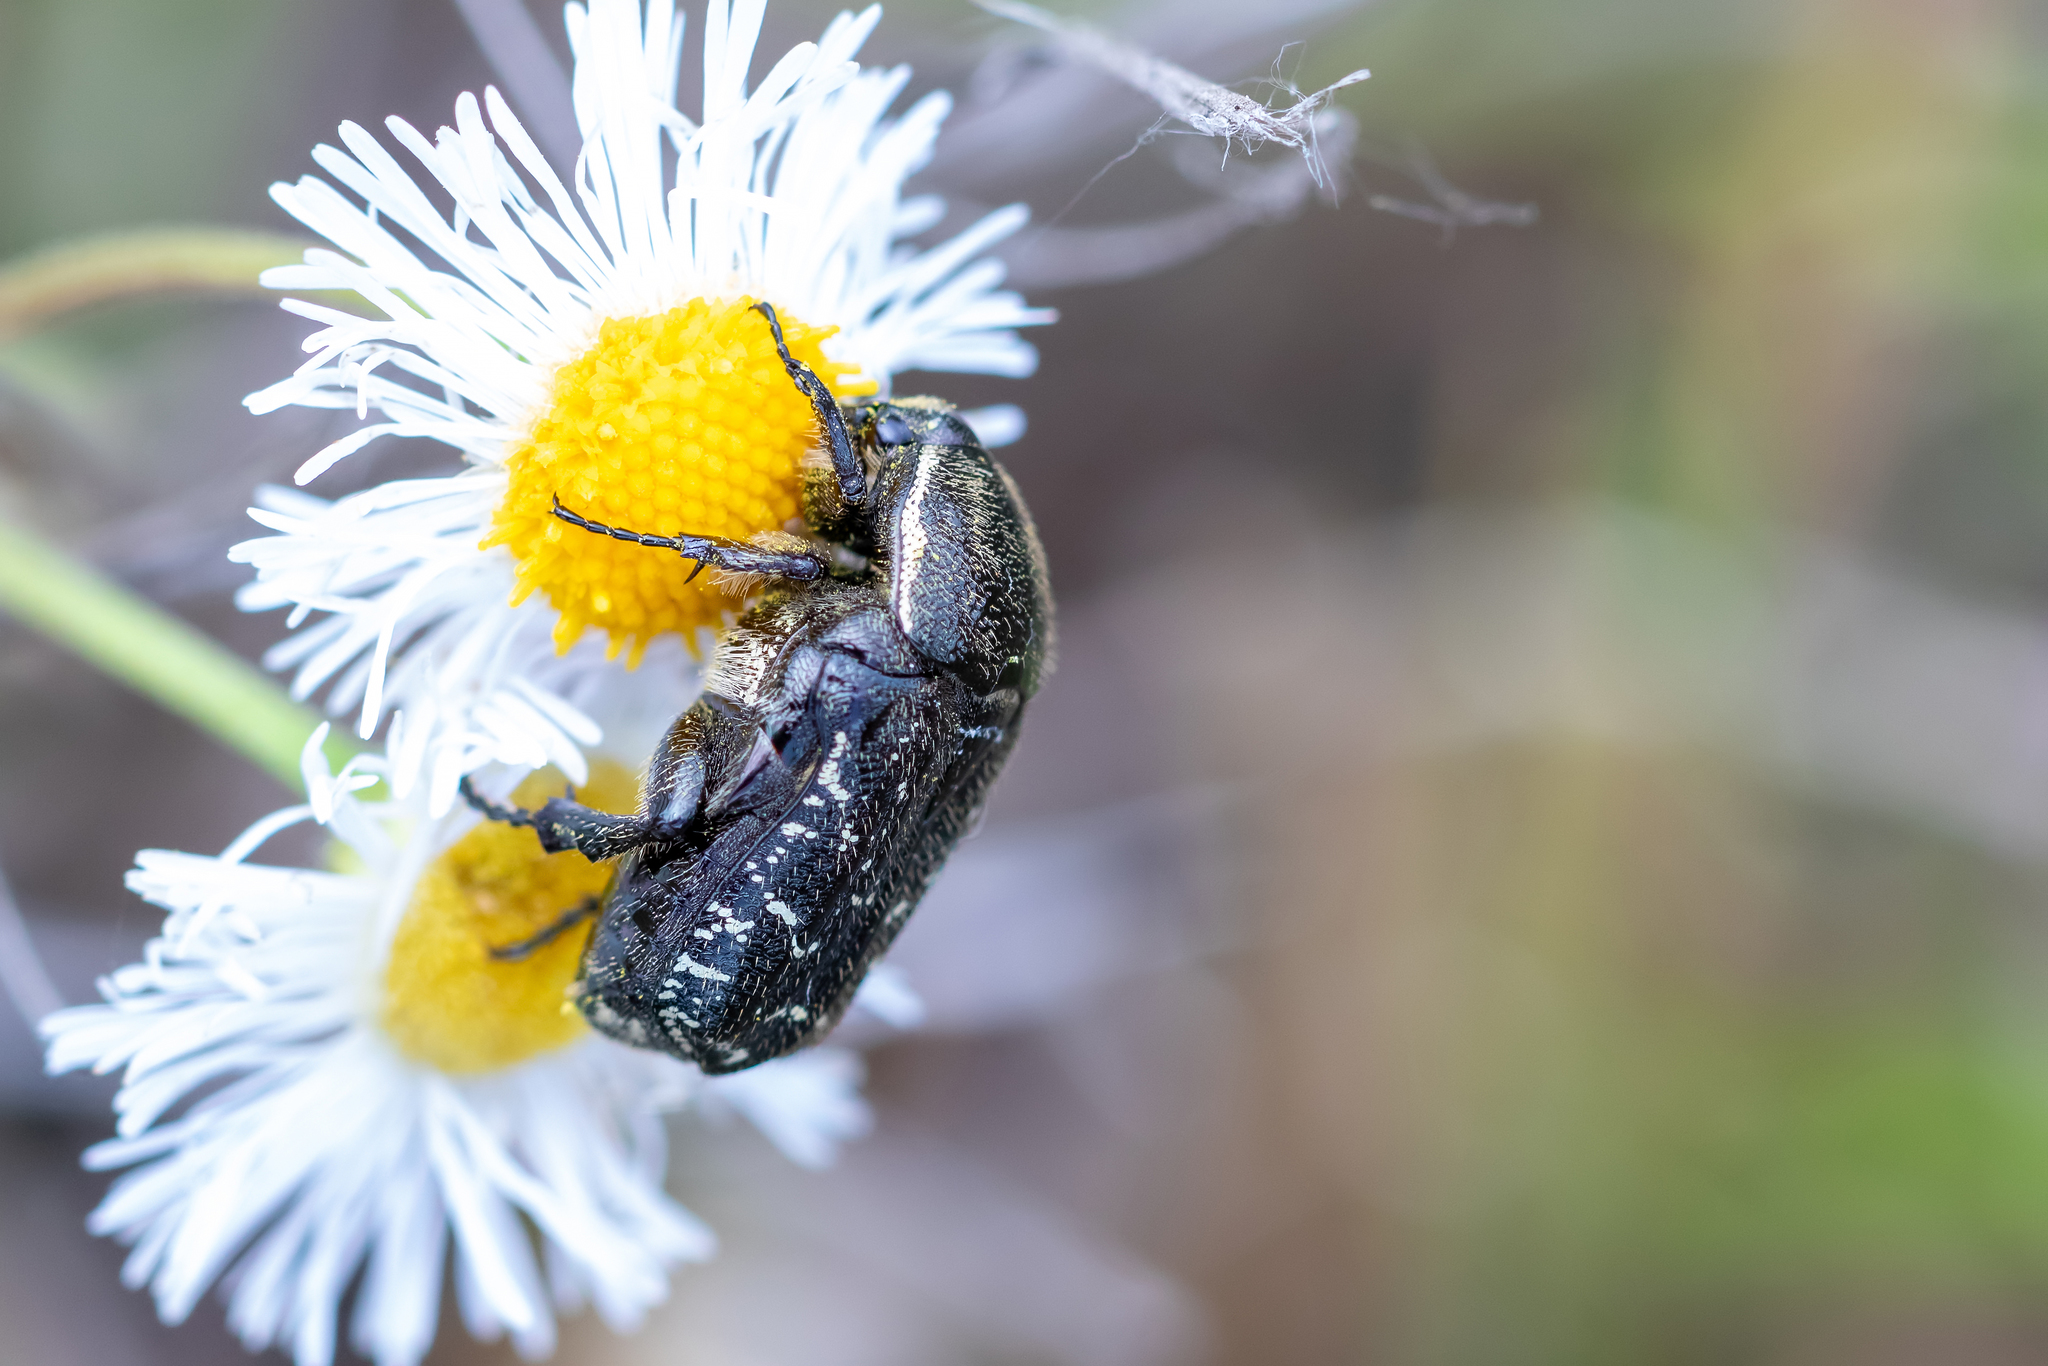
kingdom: Animalia
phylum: Arthropoda
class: Insecta
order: Coleoptera
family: Scarabaeidae
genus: Euphoria
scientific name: Euphoria sepulcralis
